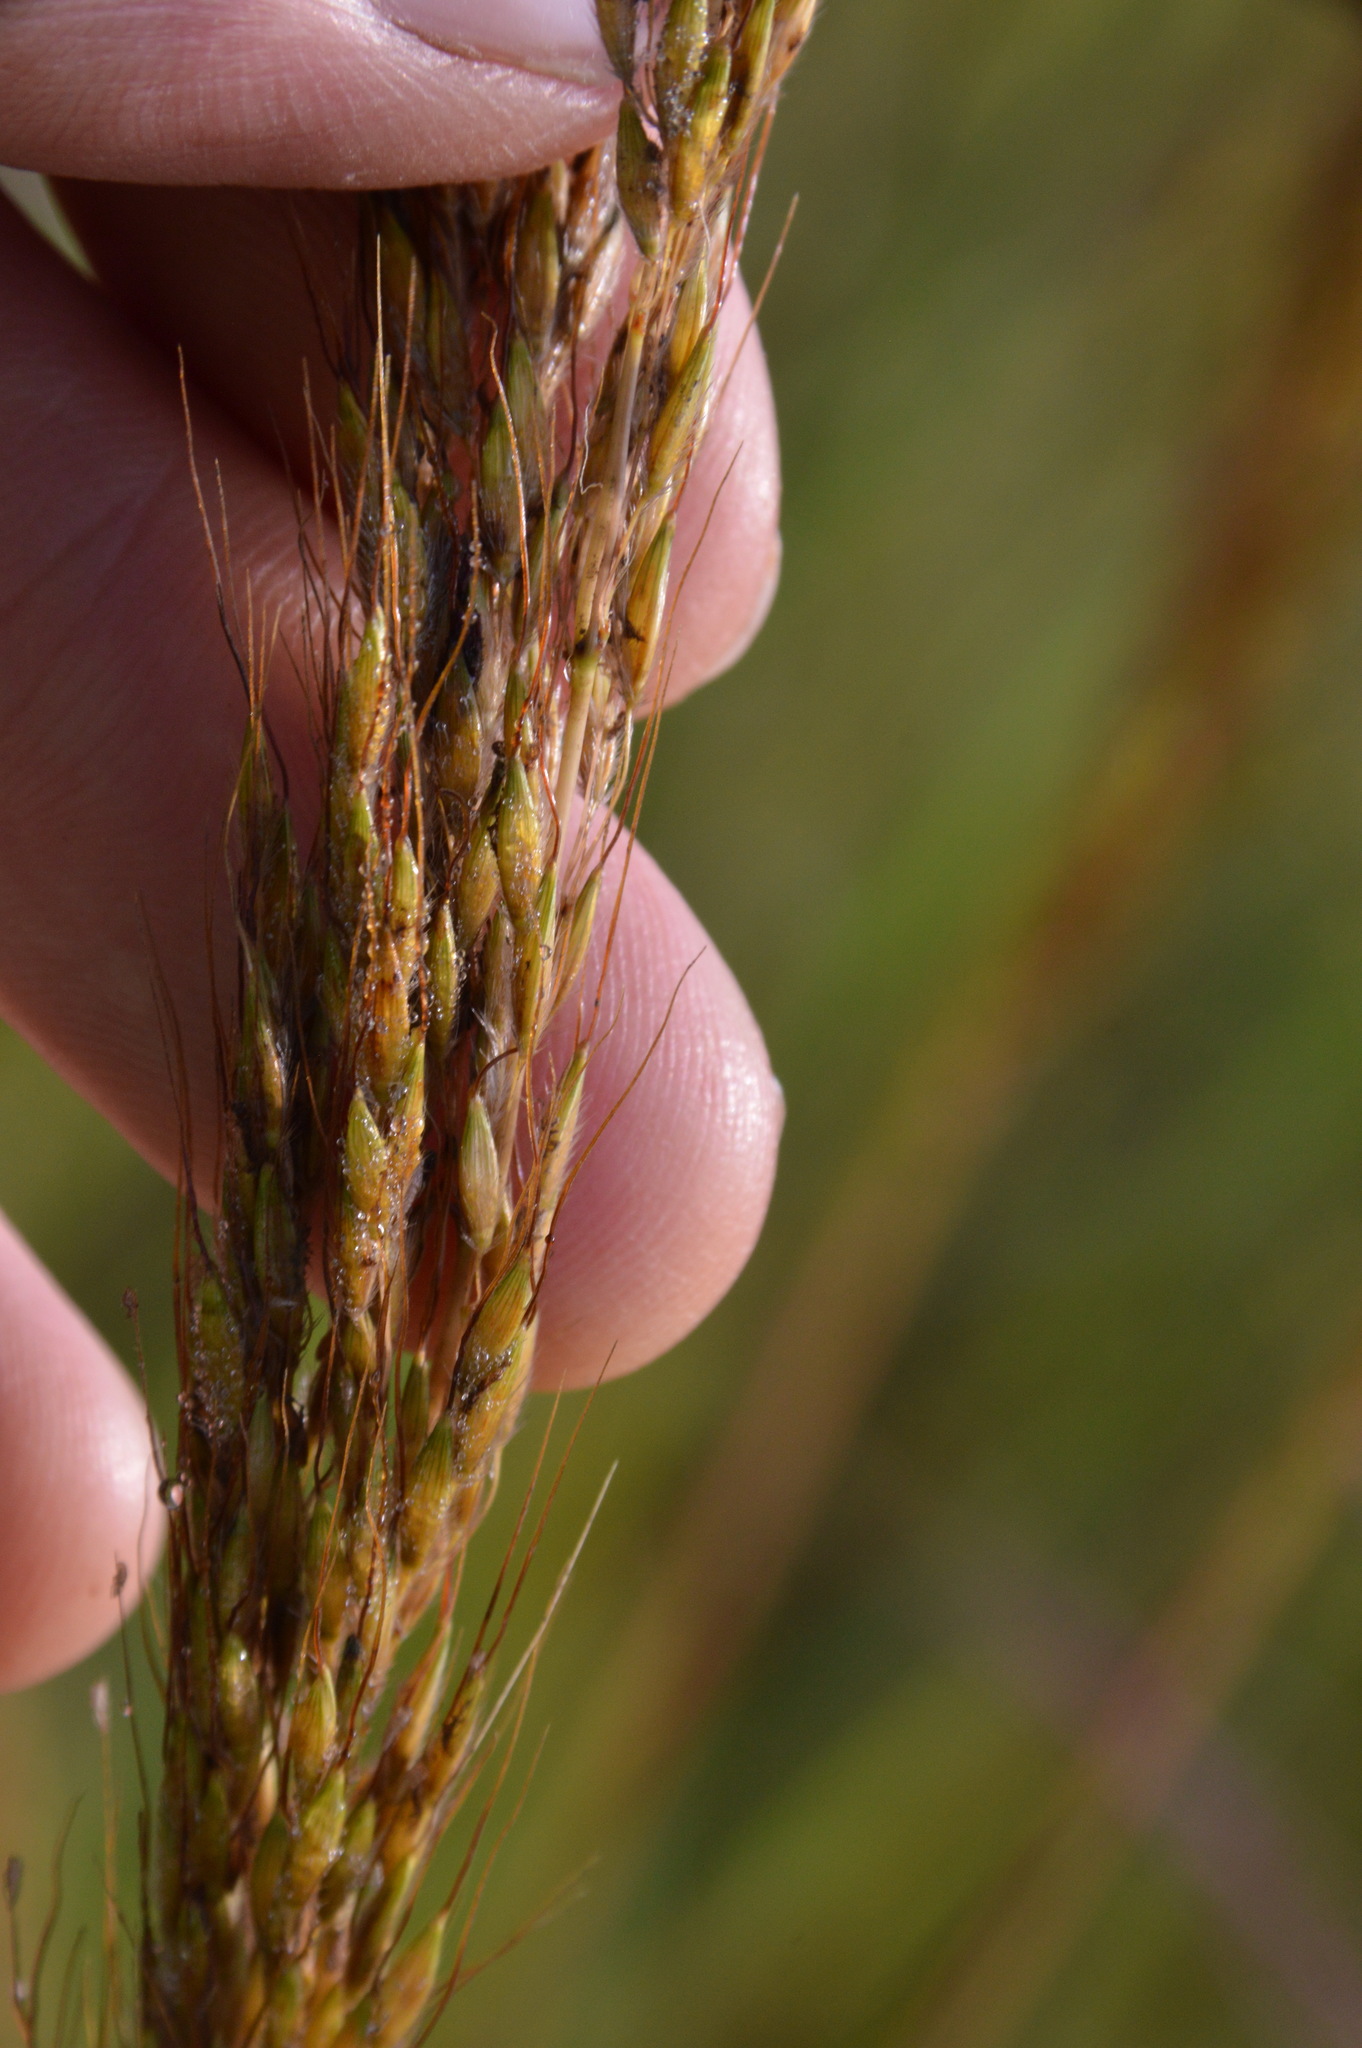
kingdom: Plantae
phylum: Tracheophyta
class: Liliopsida
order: Poales
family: Poaceae
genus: Sorghastrum
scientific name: Sorghastrum nutans
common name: Indian grass
